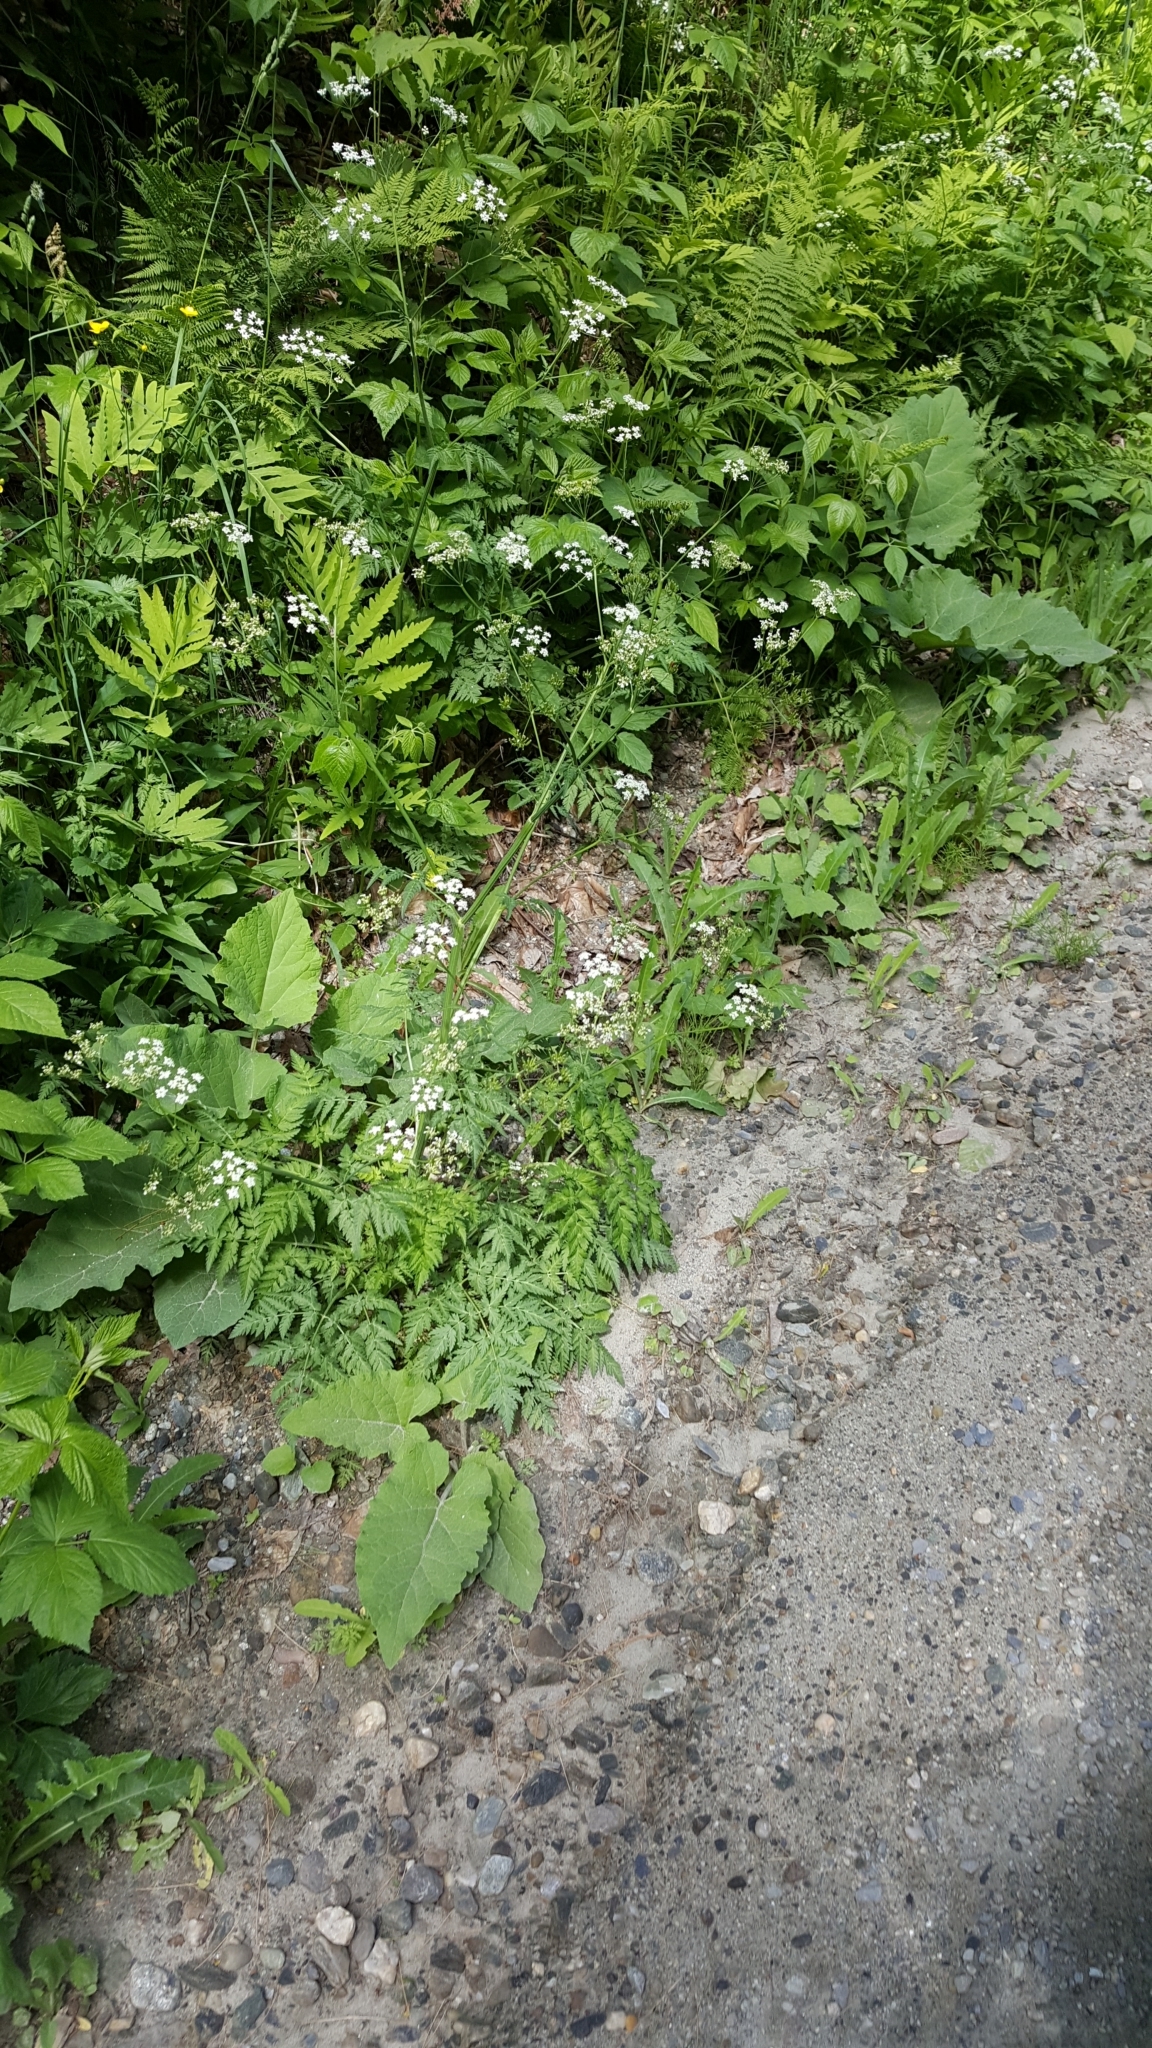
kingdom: Plantae
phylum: Tracheophyta
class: Magnoliopsida
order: Apiales
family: Apiaceae
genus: Anthriscus
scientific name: Anthriscus sylvestris
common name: Cow parsley
